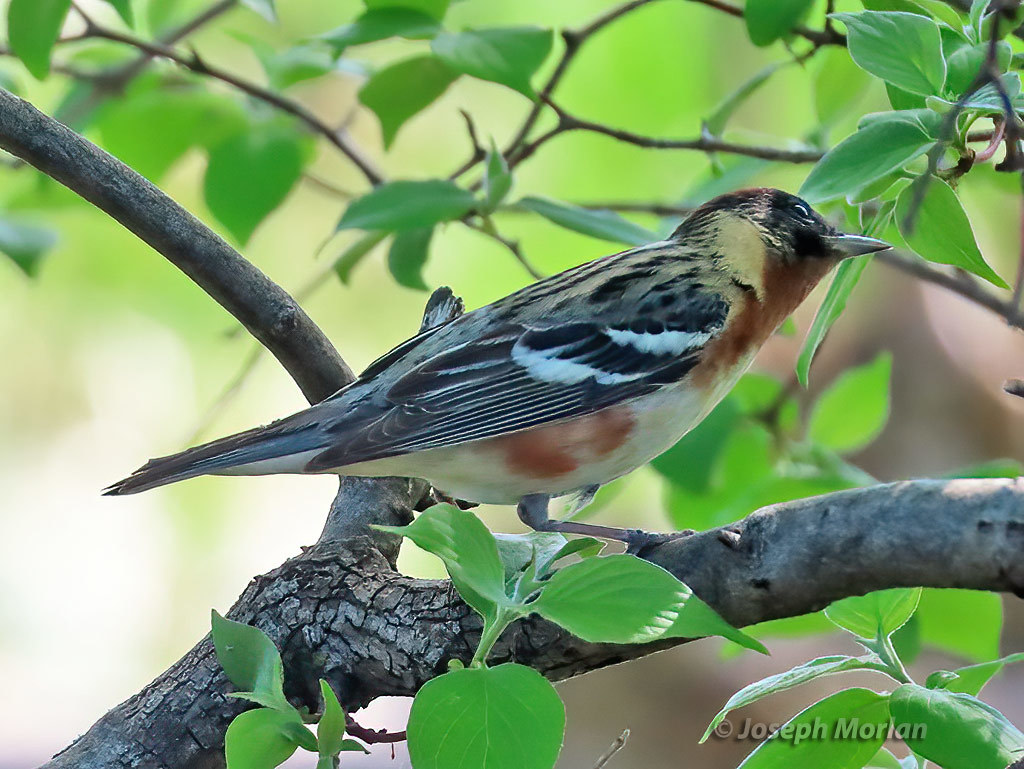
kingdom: Animalia
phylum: Chordata
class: Aves
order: Passeriformes
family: Parulidae
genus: Setophaga
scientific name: Setophaga castanea
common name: Bay-breasted warbler
